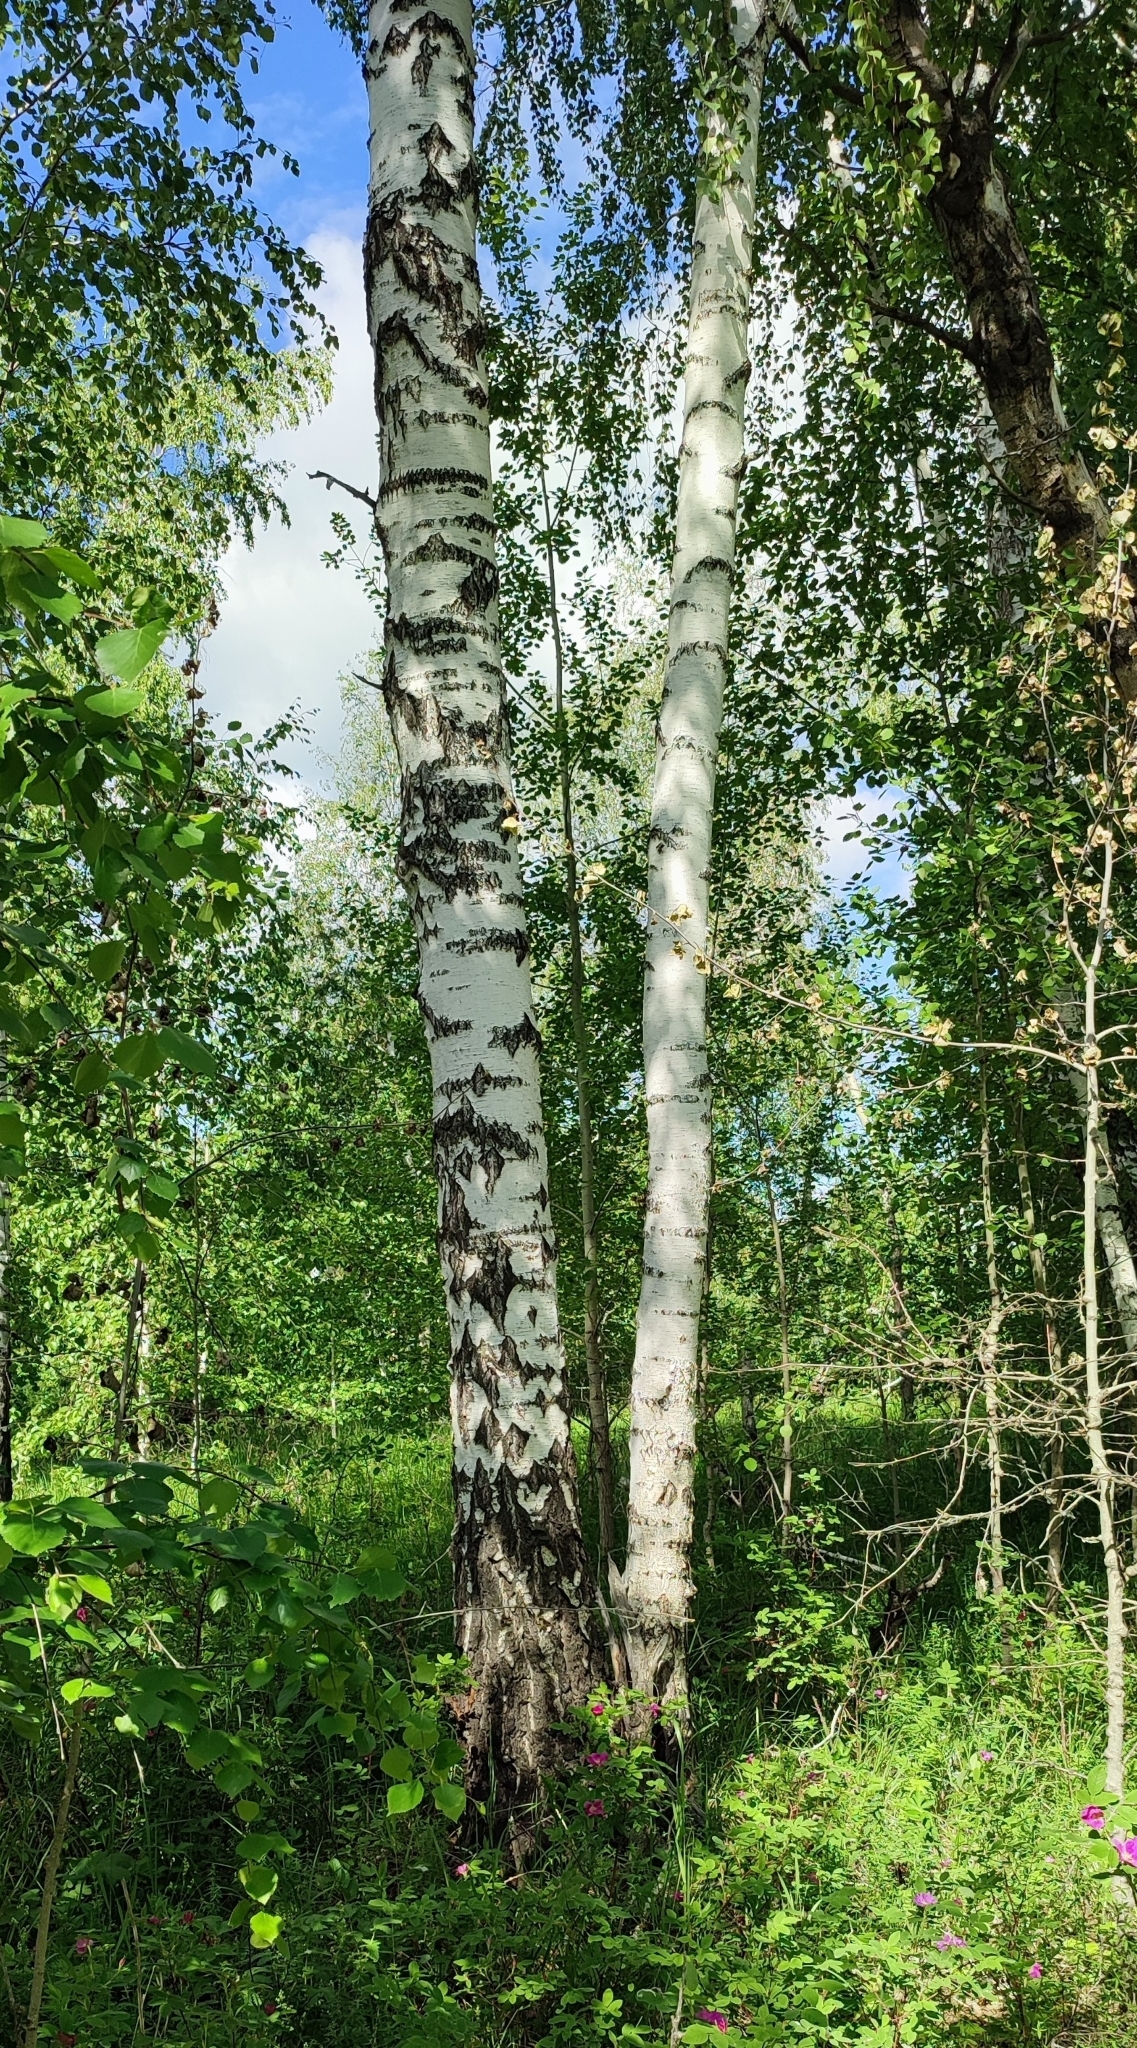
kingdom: Plantae
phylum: Tracheophyta
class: Magnoliopsida
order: Fagales
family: Betulaceae
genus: Betula
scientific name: Betula pendula
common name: Silver birch
